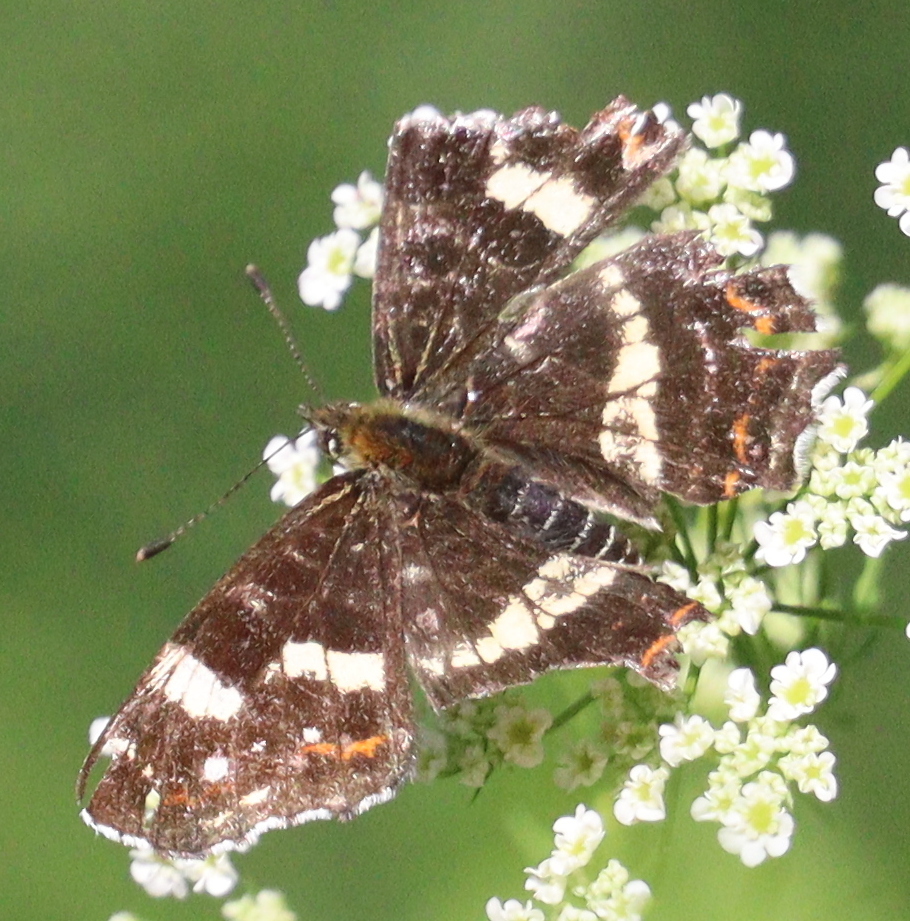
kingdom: Animalia
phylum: Arthropoda
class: Insecta
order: Lepidoptera
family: Nymphalidae
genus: Araschnia
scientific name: Araschnia levana
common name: Map butterfly
